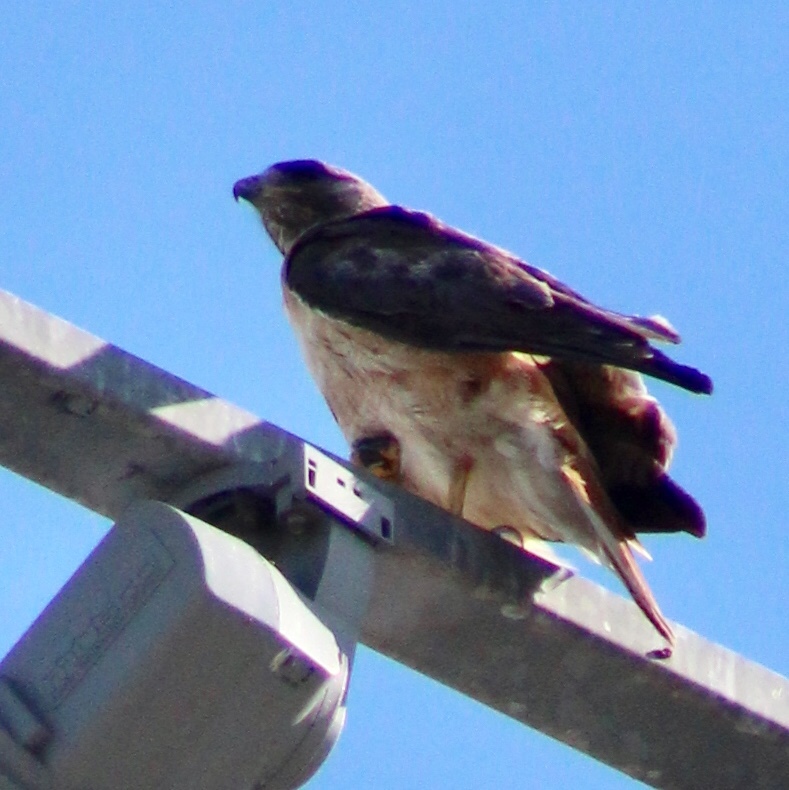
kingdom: Animalia
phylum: Chordata
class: Aves
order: Accipitriformes
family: Accipitridae
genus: Buteo
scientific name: Buteo jamaicensis
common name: Red-tailed hawk
